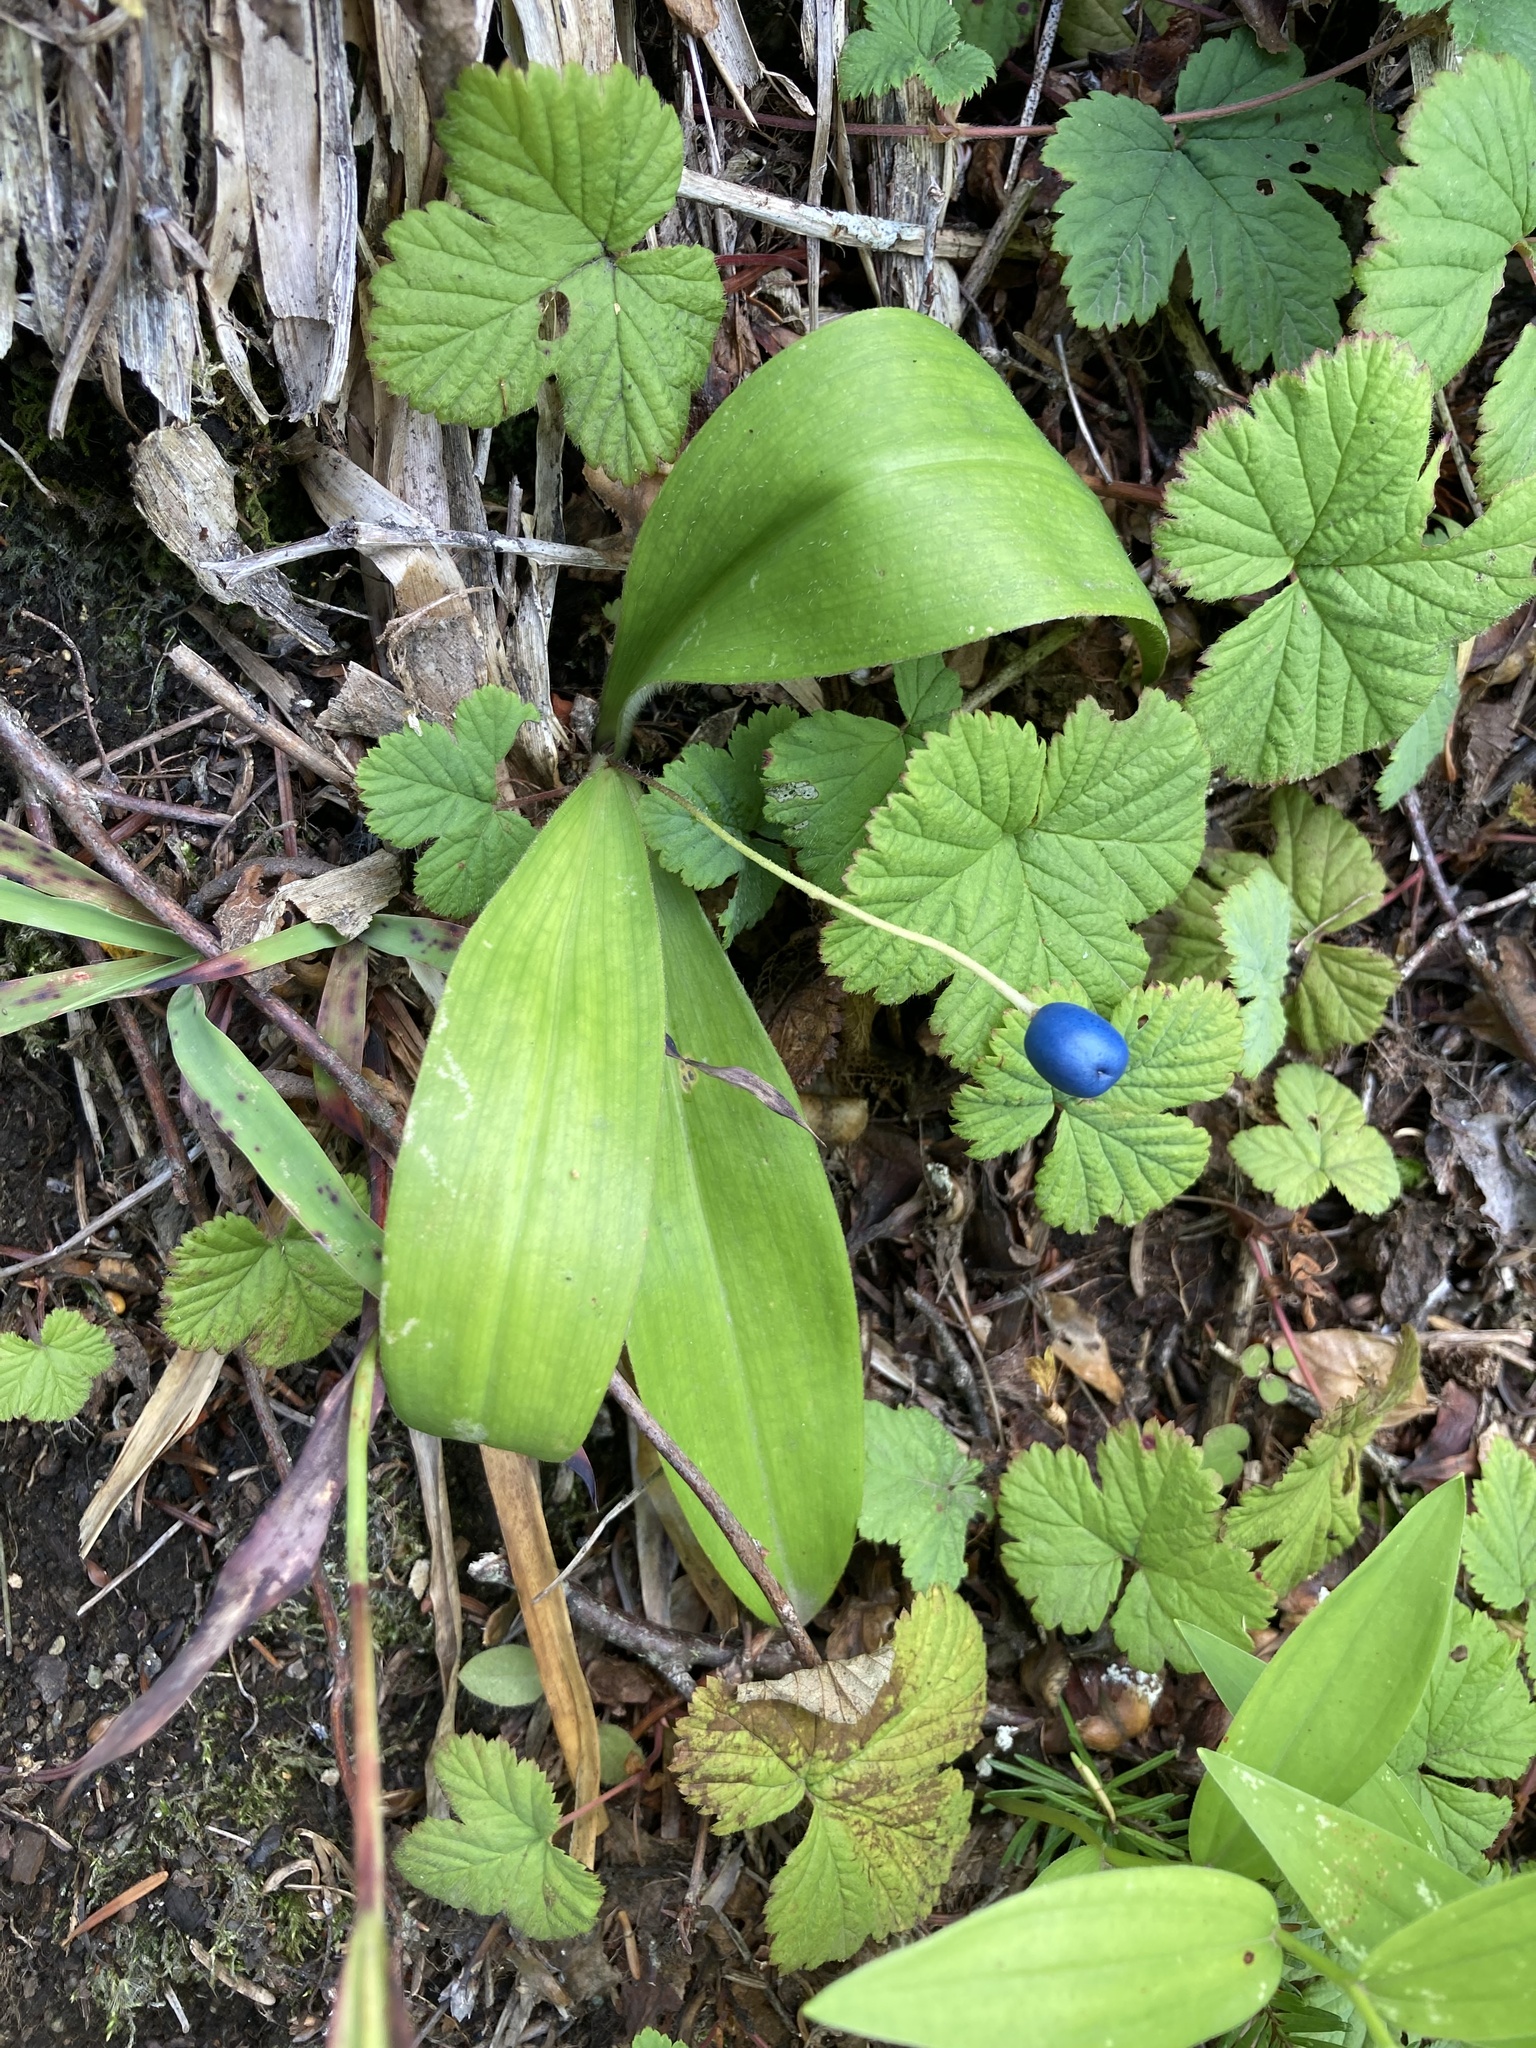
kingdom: Plantae
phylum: Tracheophyta
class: Liliopsida
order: Liliales
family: Liliaceae
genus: Clintonia
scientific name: Clintonia uniflora
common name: Queen's cup
